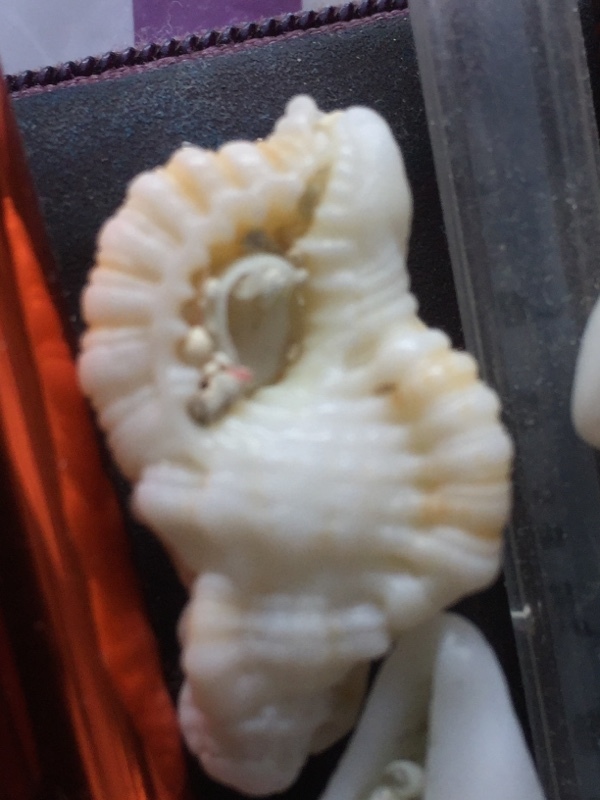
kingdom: Animalia
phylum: Mollusca
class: Gastropoda
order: Littorinimorpha
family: Cymatiidae
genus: Monoplex
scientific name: Monoplex nicobaricus
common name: Goldmouth triton
